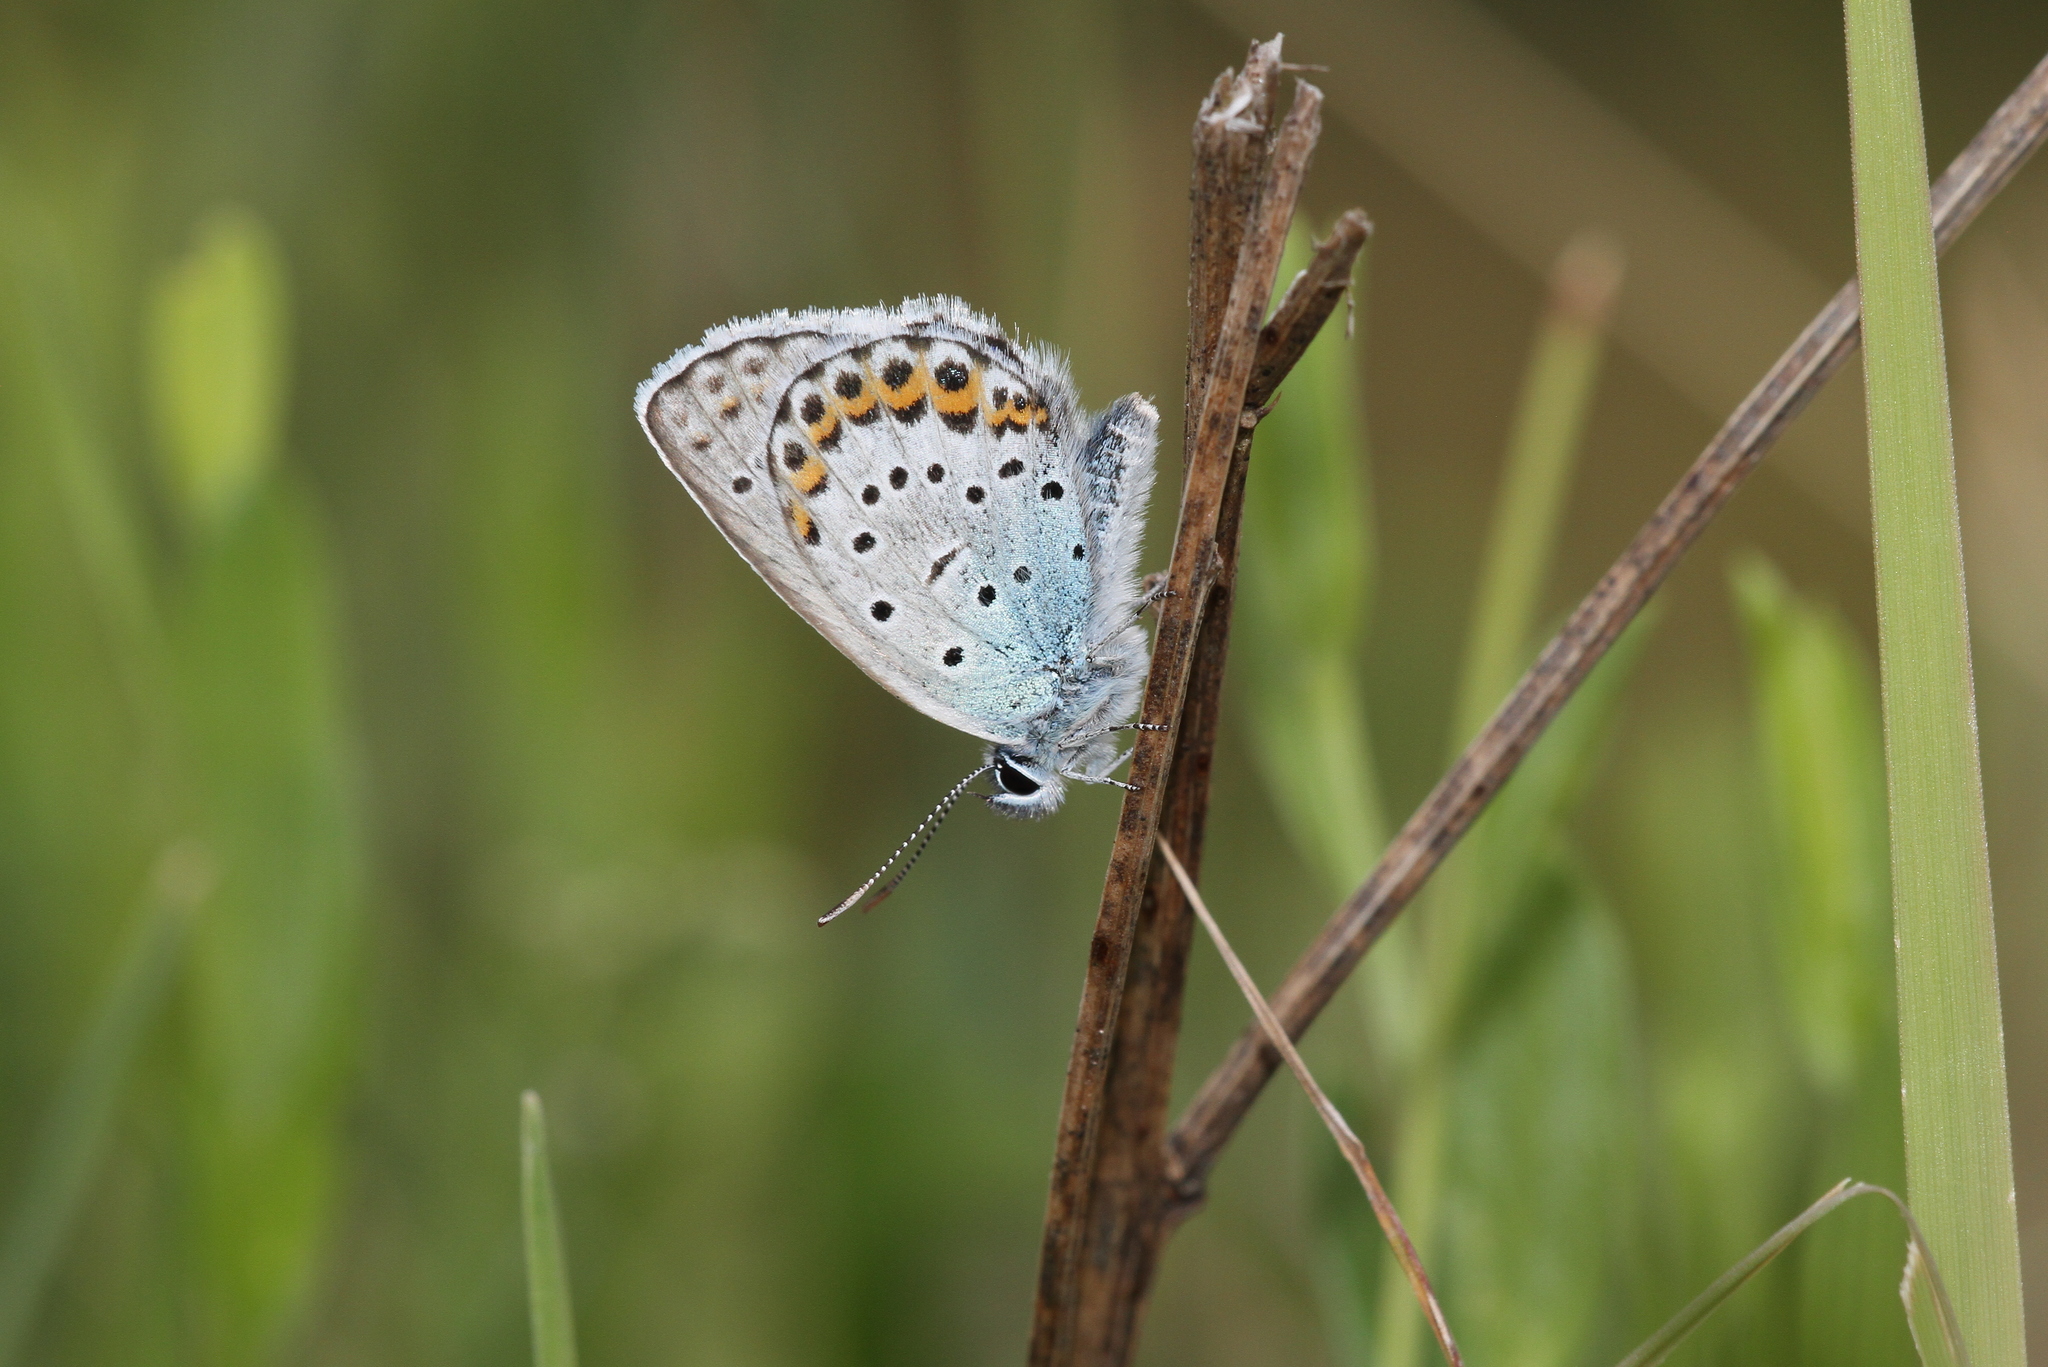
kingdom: Animalia
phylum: Arthropoda
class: Insecta
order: Lepidoptera
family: Lycaenidae
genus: Lycaeides
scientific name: Lycaeides idas
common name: Northern blue
